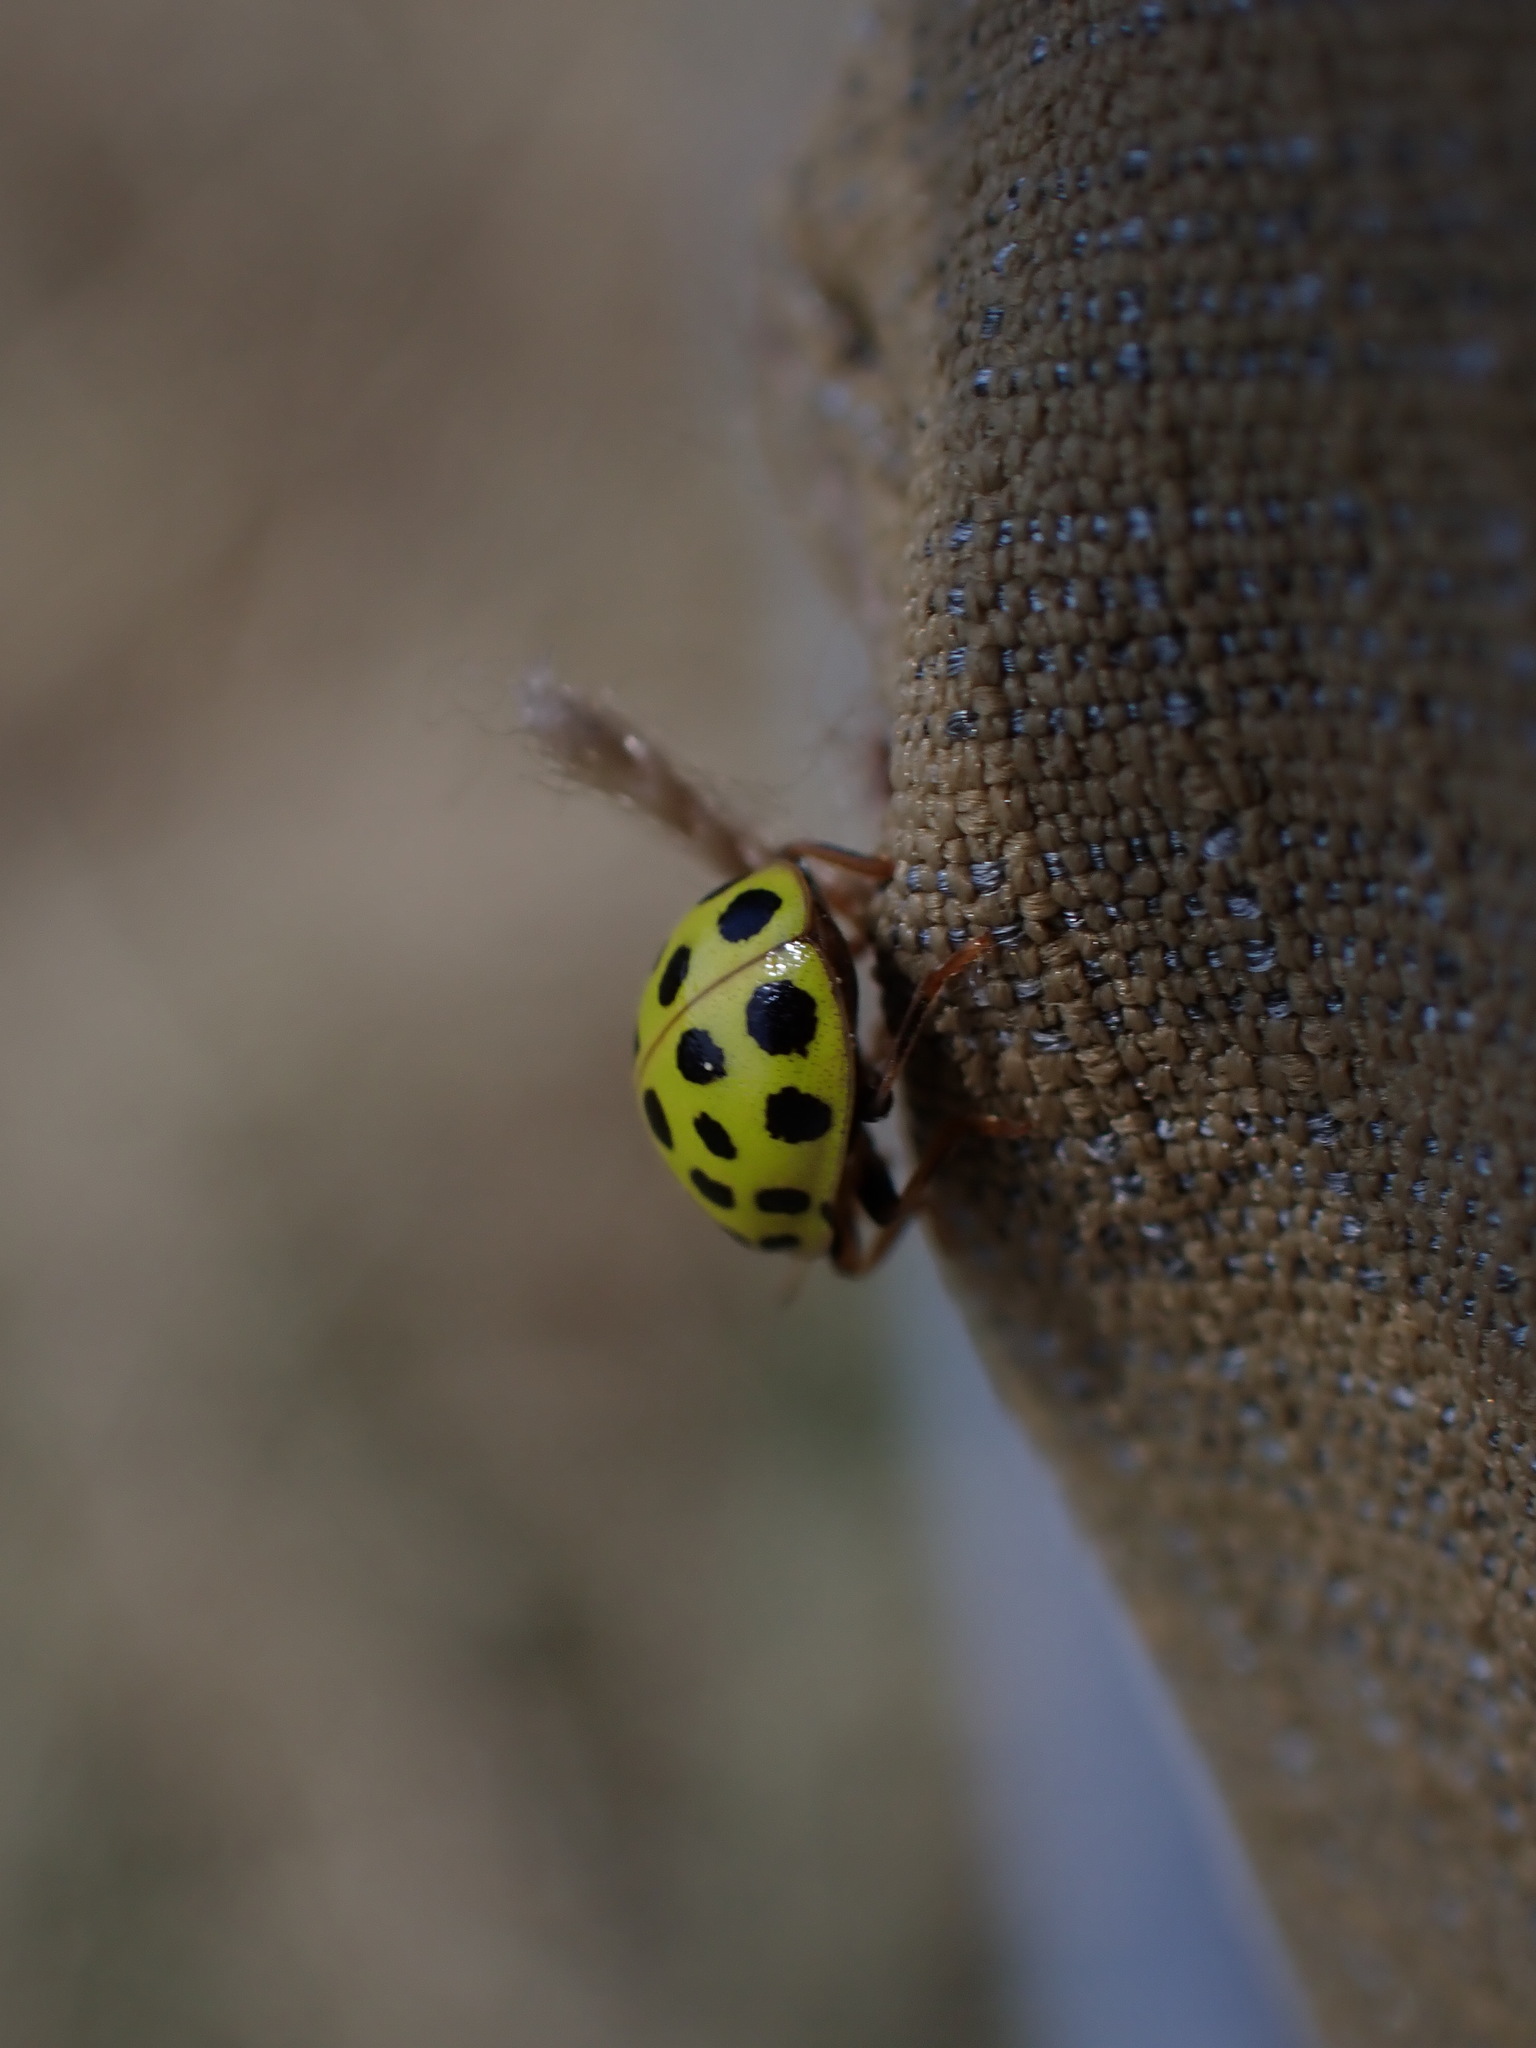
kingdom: Animalia
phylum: Arthropoda
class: Insecta
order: Coleoptera
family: Coccinellidae
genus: Psyllobora
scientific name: Psyllobora vigintiduopunctata
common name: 22-spot ladybird
